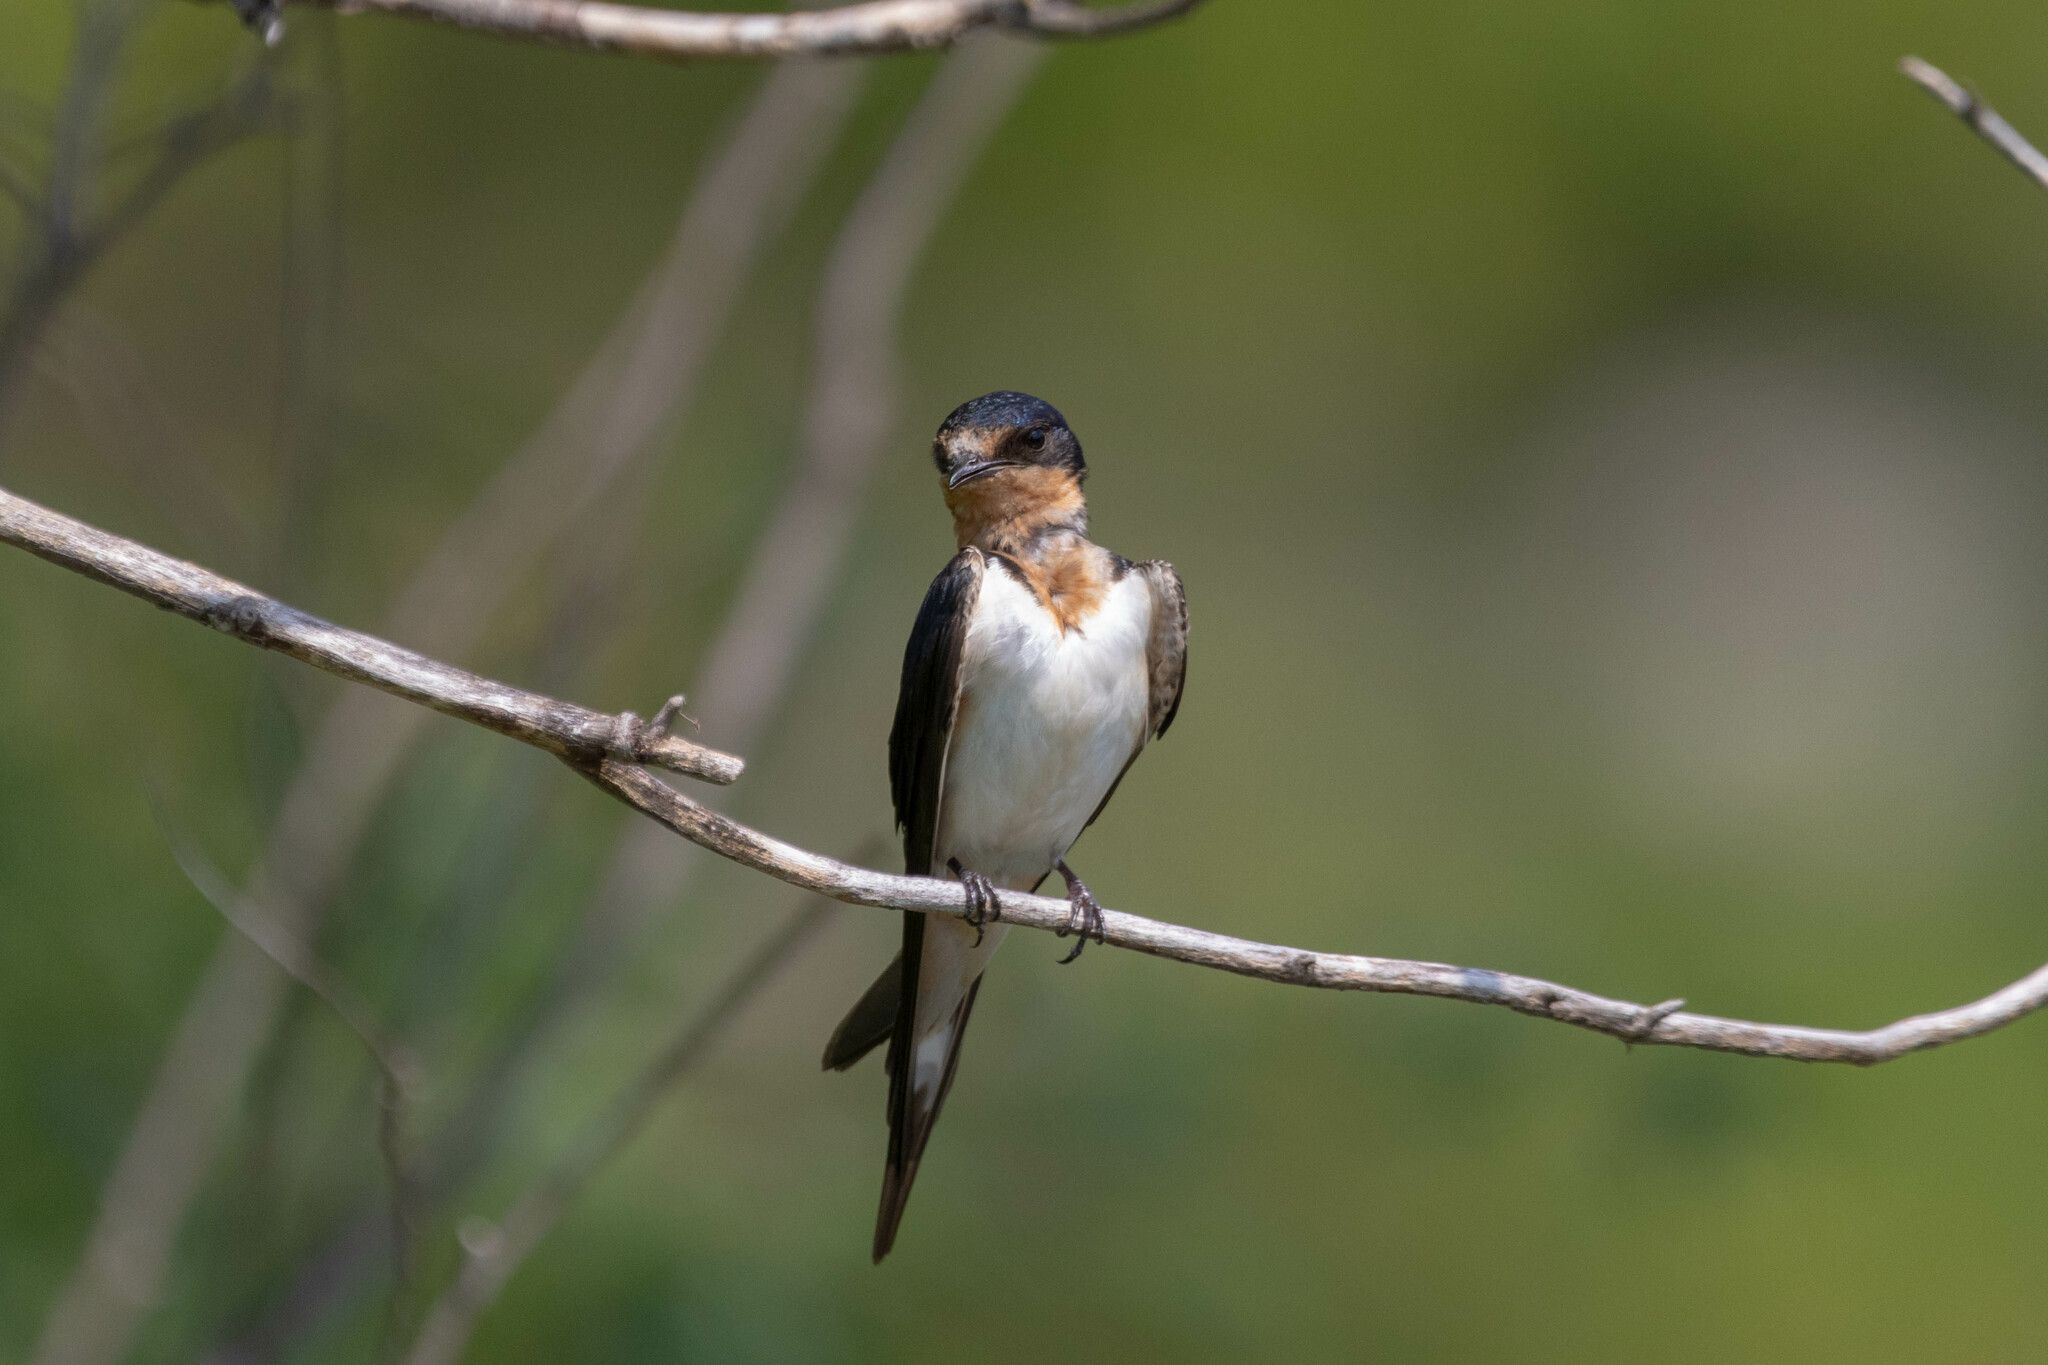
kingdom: Animalia
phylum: Chordata
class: Aves
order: Passeriformes
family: Hirundinidae
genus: Hirundo
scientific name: Hirundo rustica
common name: Barn swallow
